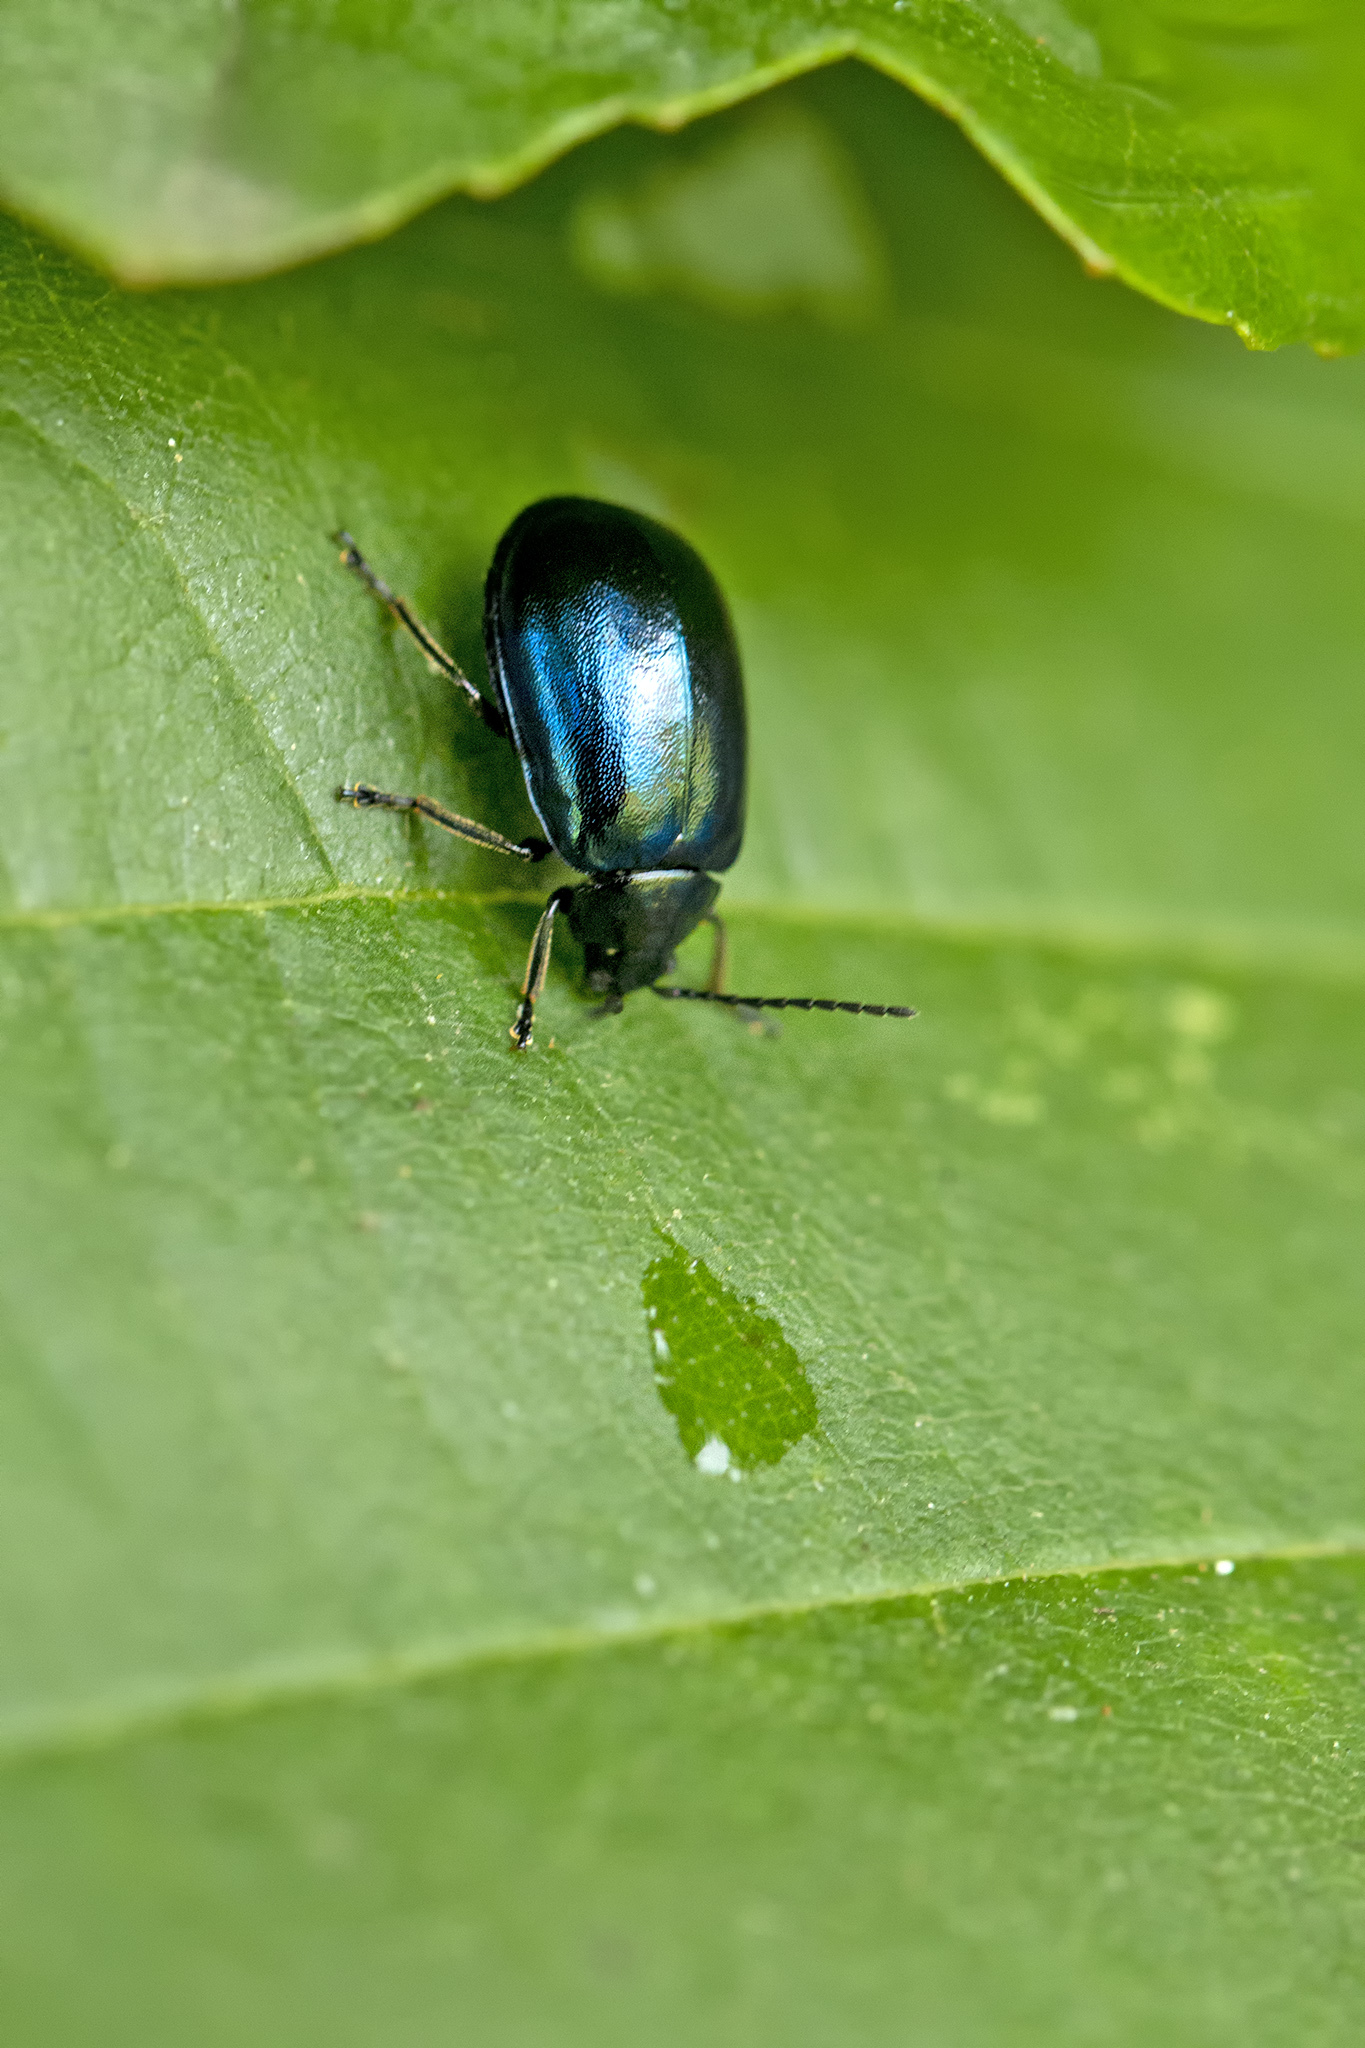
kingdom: Animalia
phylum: Arthropoda
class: Insecta
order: Coleoptera
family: Chrysomelidae
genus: Agelastica
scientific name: Agelastica alni
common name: Alder leaf beetle
